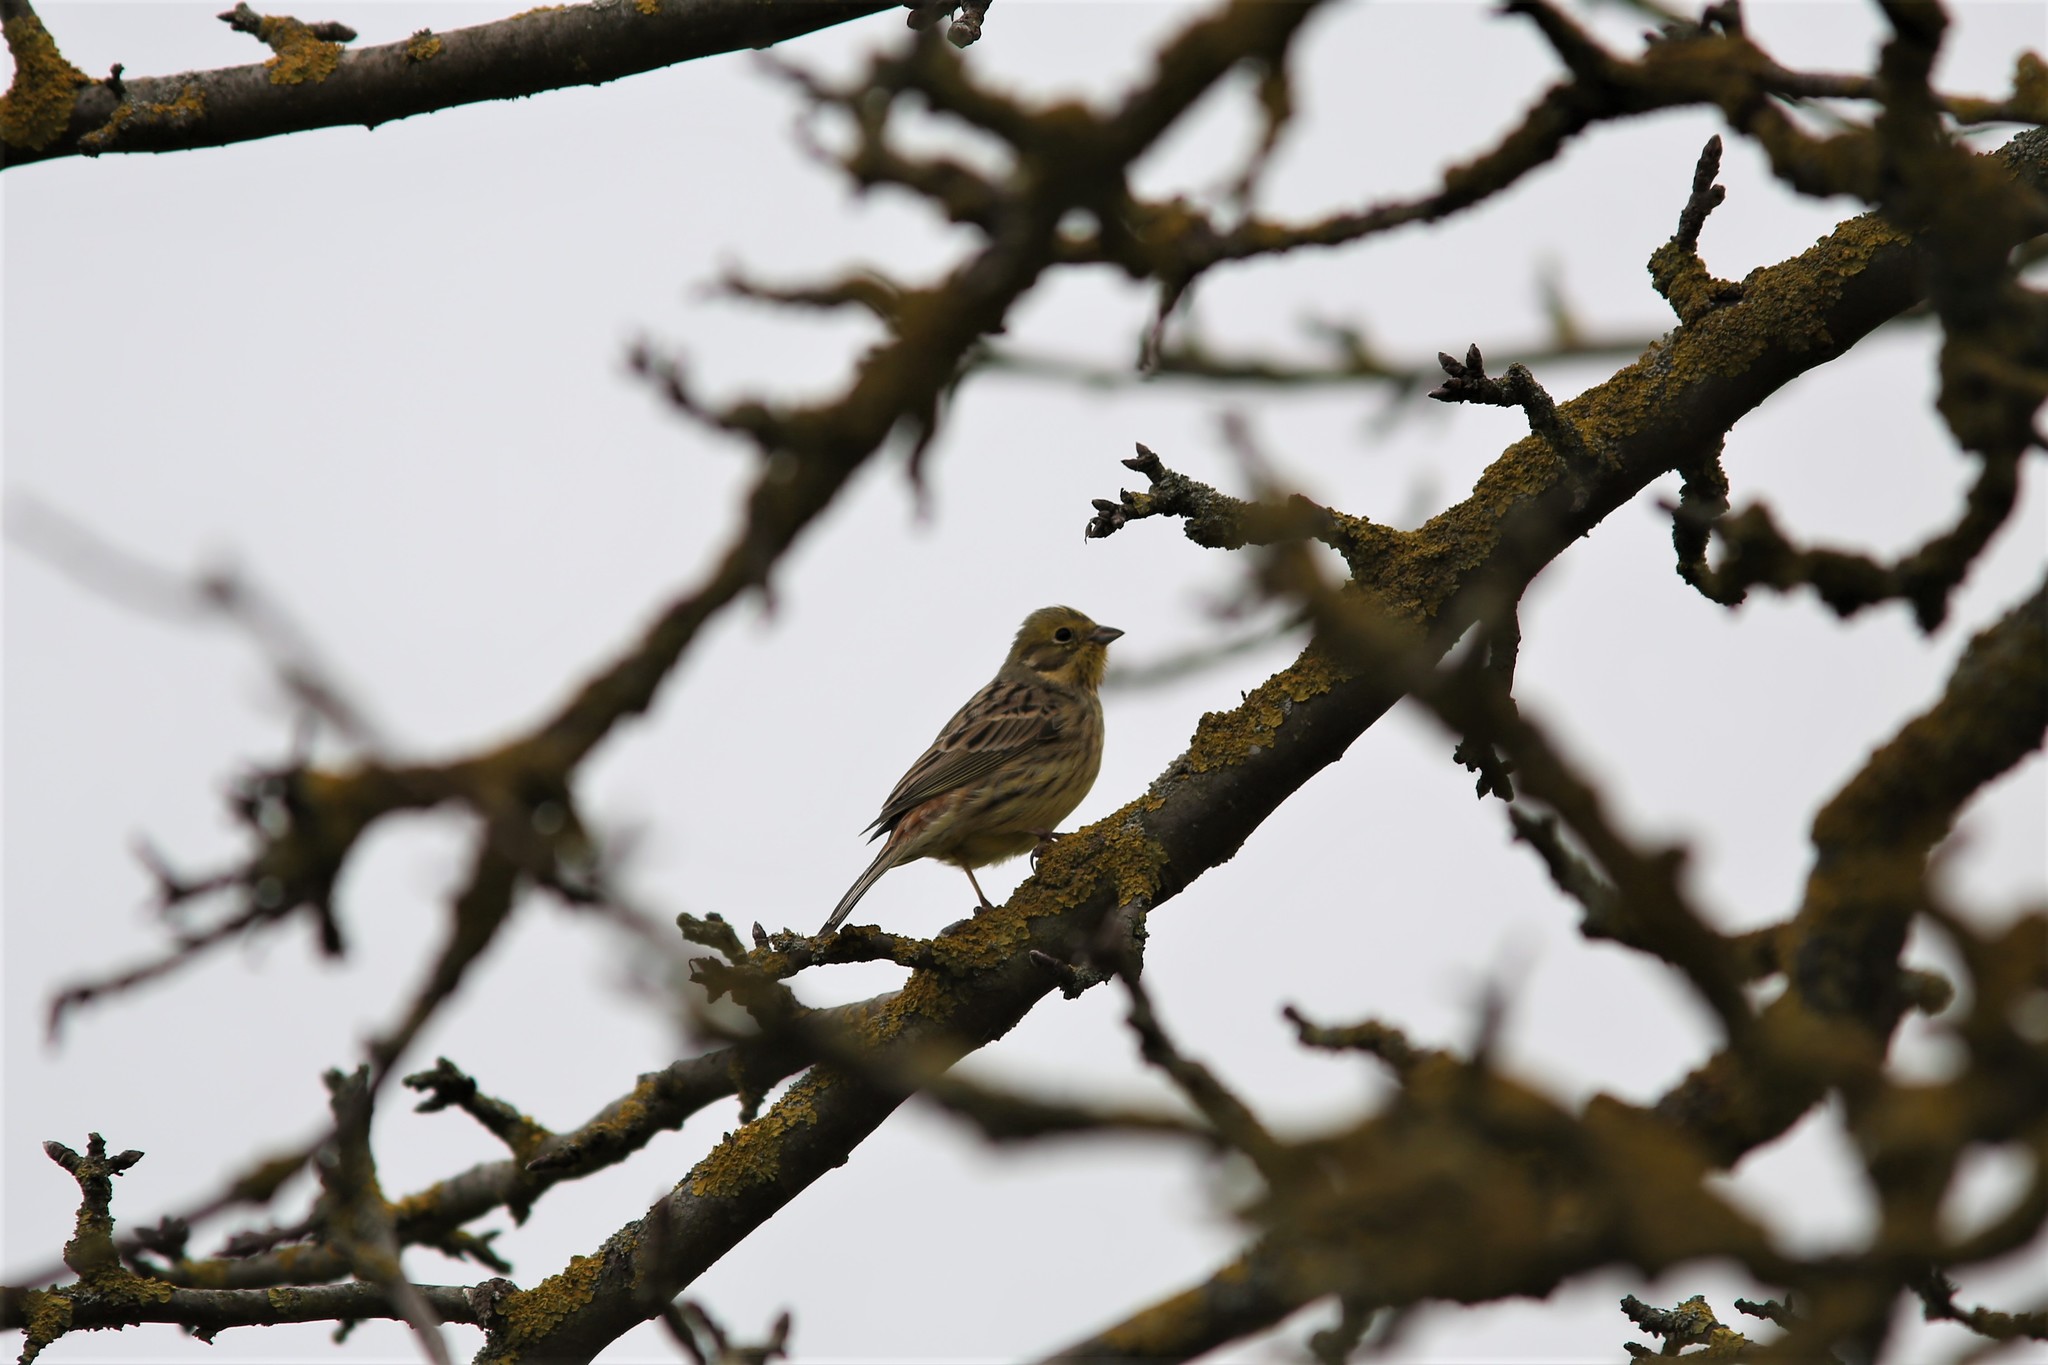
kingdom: Animalia
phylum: Chordata
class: Aves
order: Passeriformes
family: Emberizidae
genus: Emberiza
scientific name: Emberiza citrinella
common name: Yellowhammer
